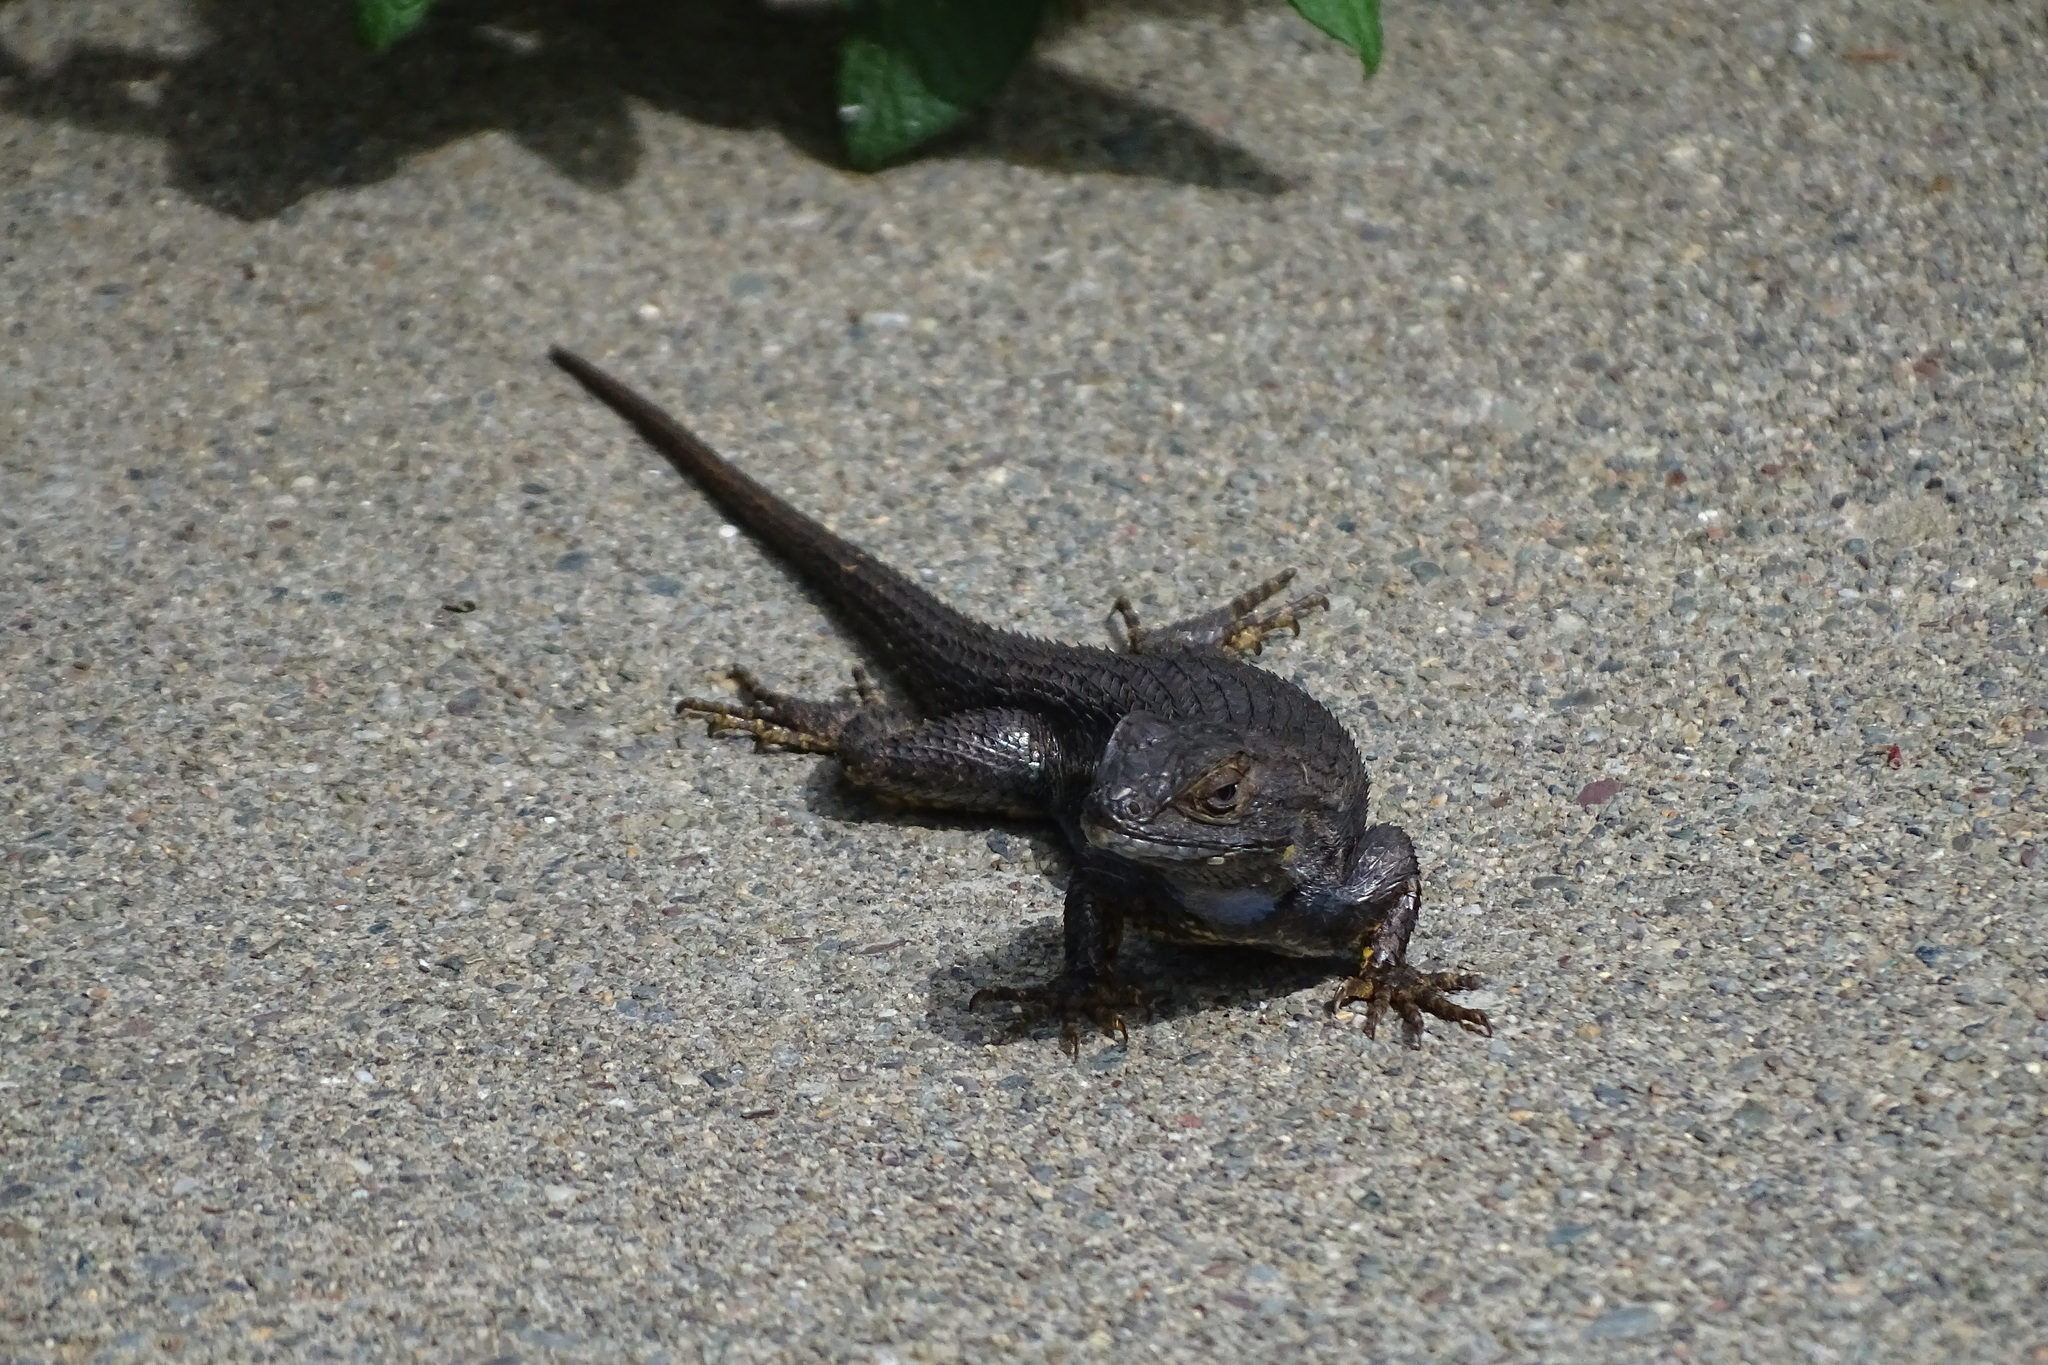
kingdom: Animalia
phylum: Chordata
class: Squamata
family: Phrynosomatidae
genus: Sceloporus
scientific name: Sceloporus occidentalis
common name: Western fence lizard
